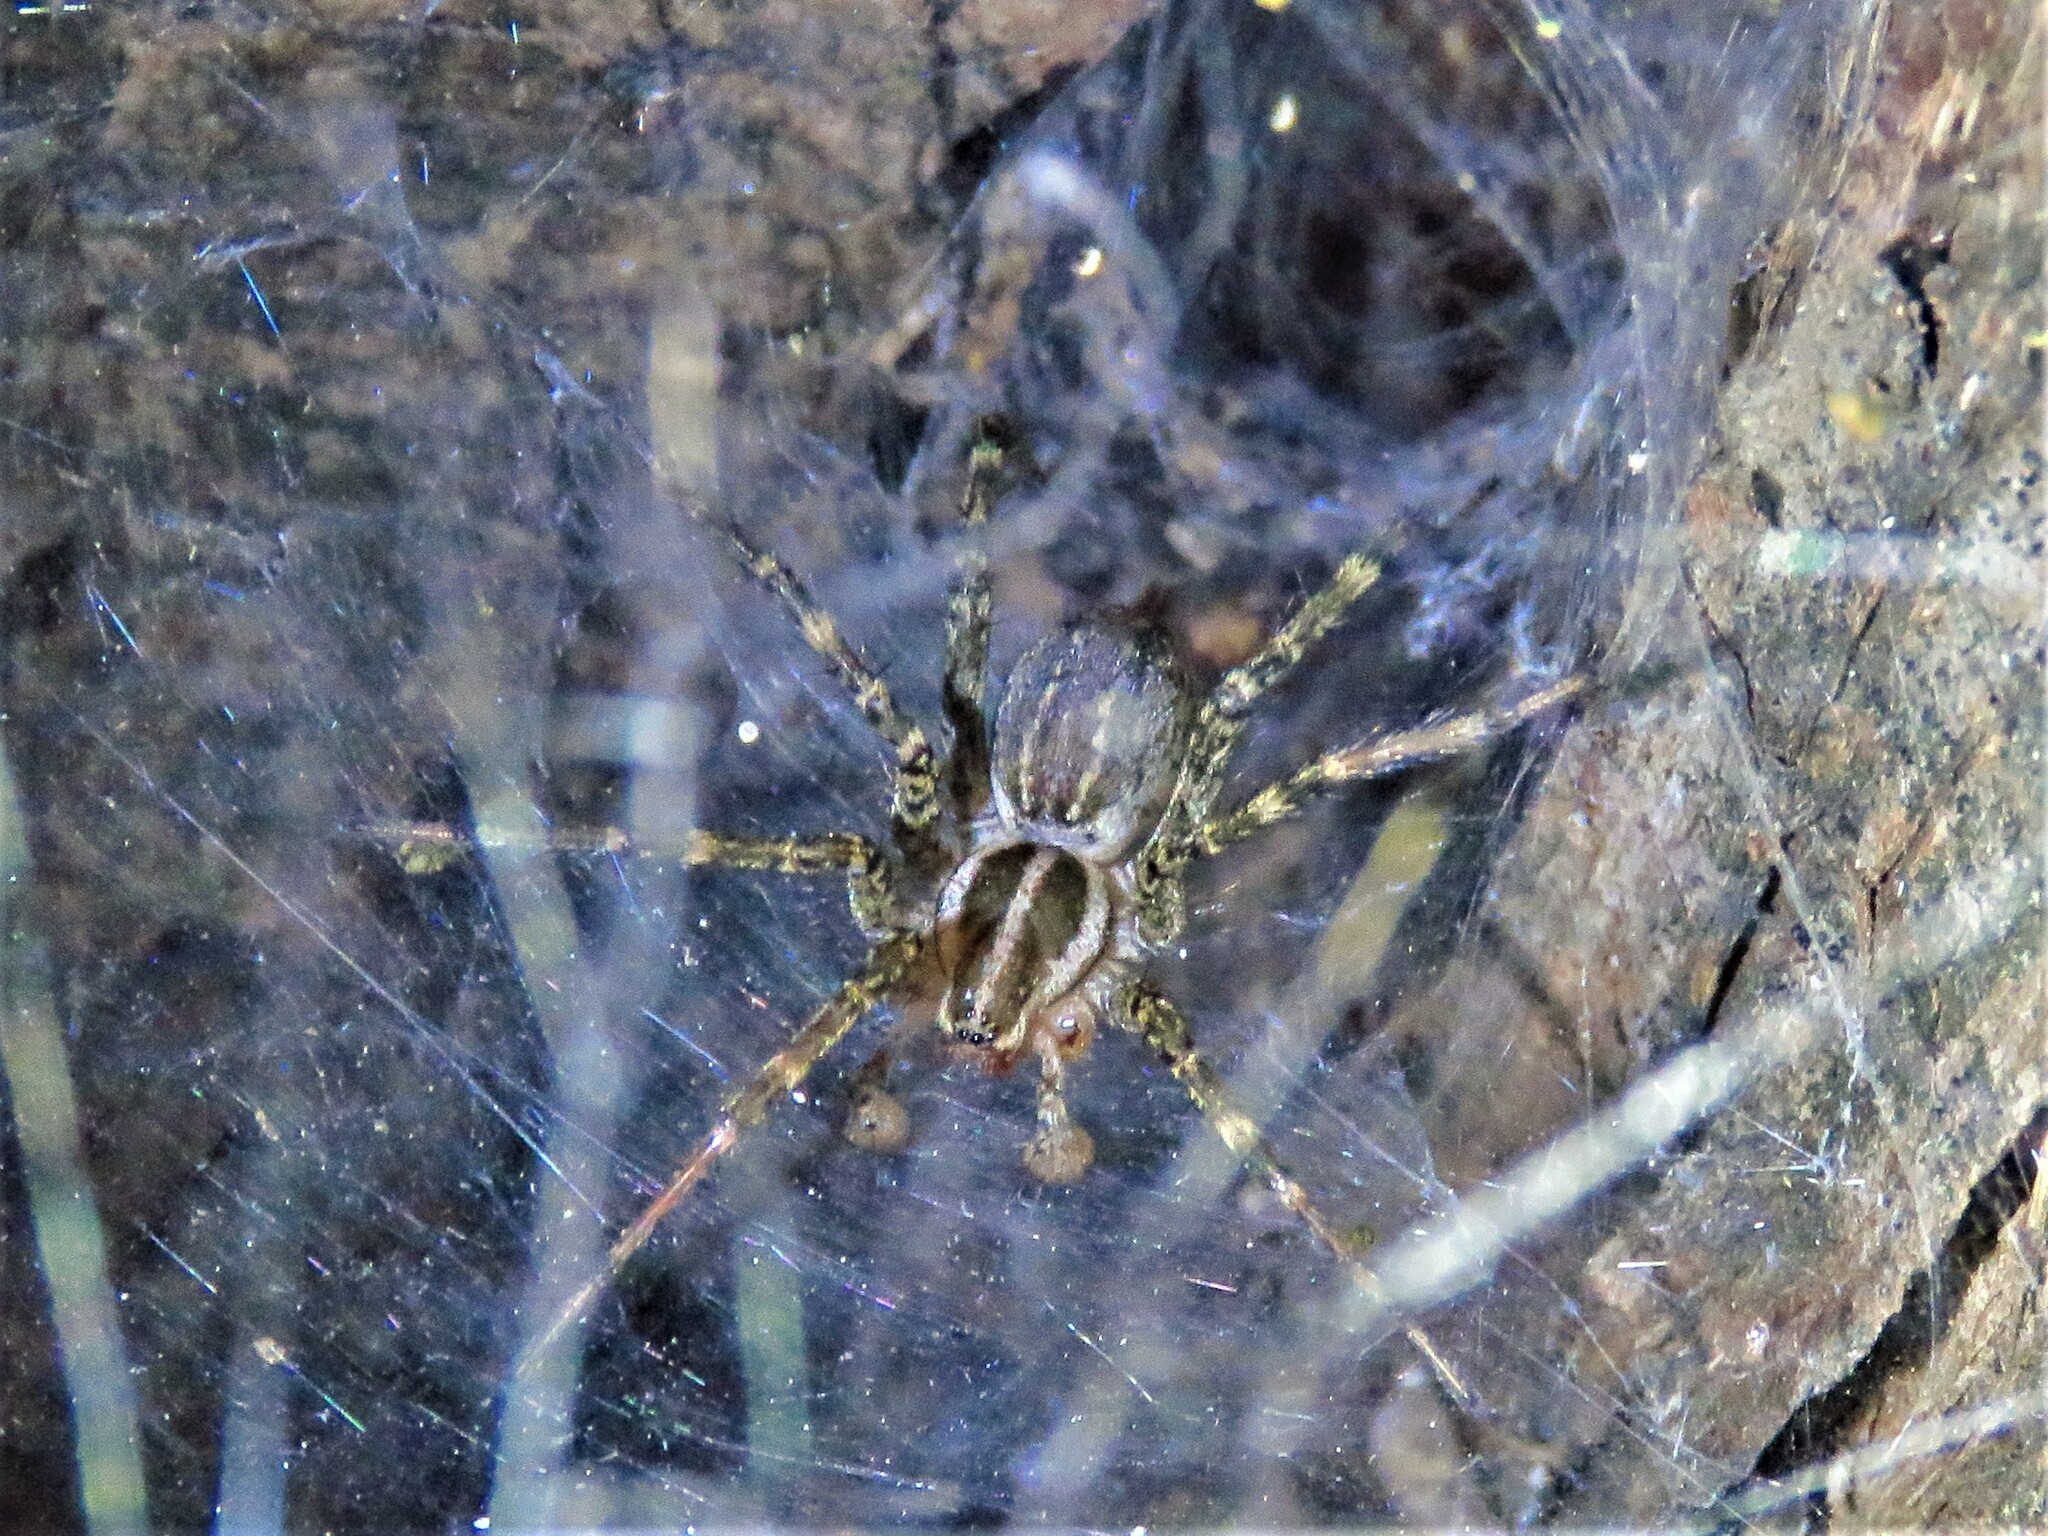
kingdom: Animalia
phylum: Arthropoda
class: Arachnida
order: Araneae
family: Agelenidae
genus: Agelenopsis
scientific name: Agelenopsis
